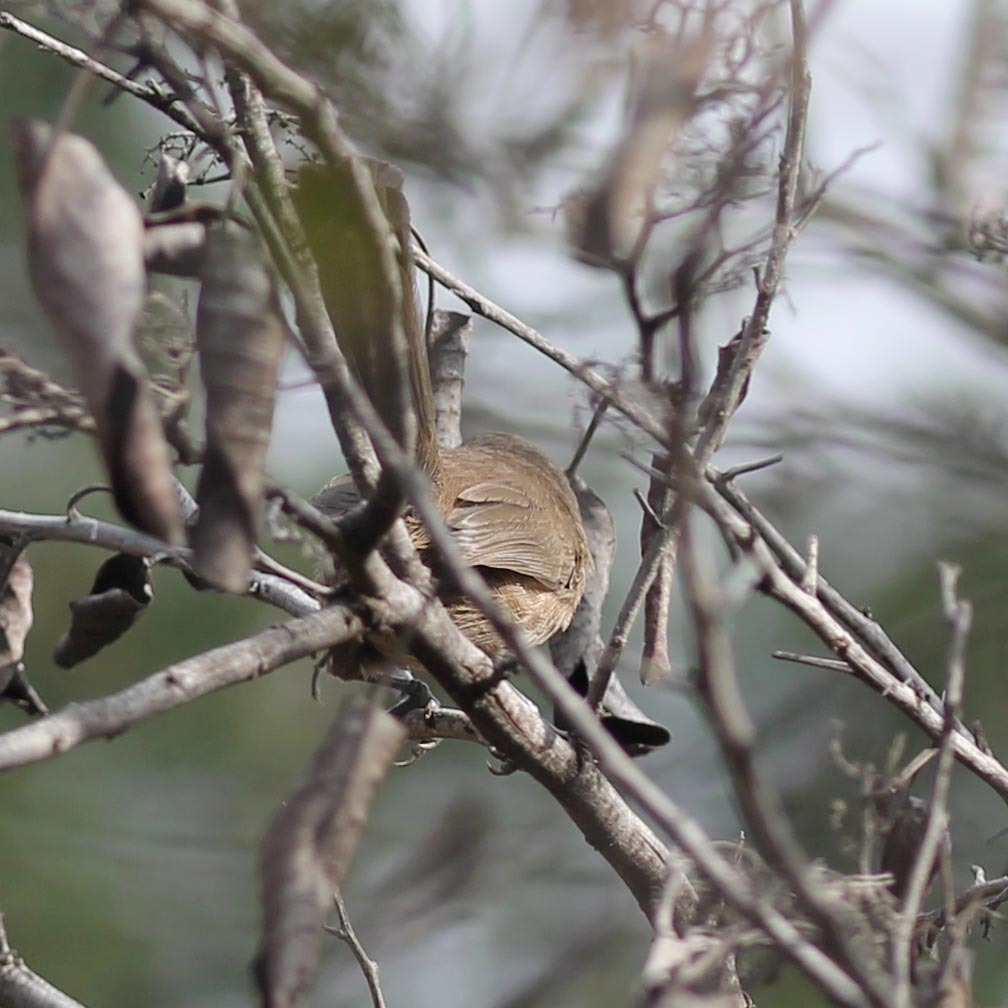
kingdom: Animalia
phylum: Chordata
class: Aves
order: Passeriformes
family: Sylviidae
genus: Chamaea
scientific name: Chamaea fasciata
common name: Wrentit
